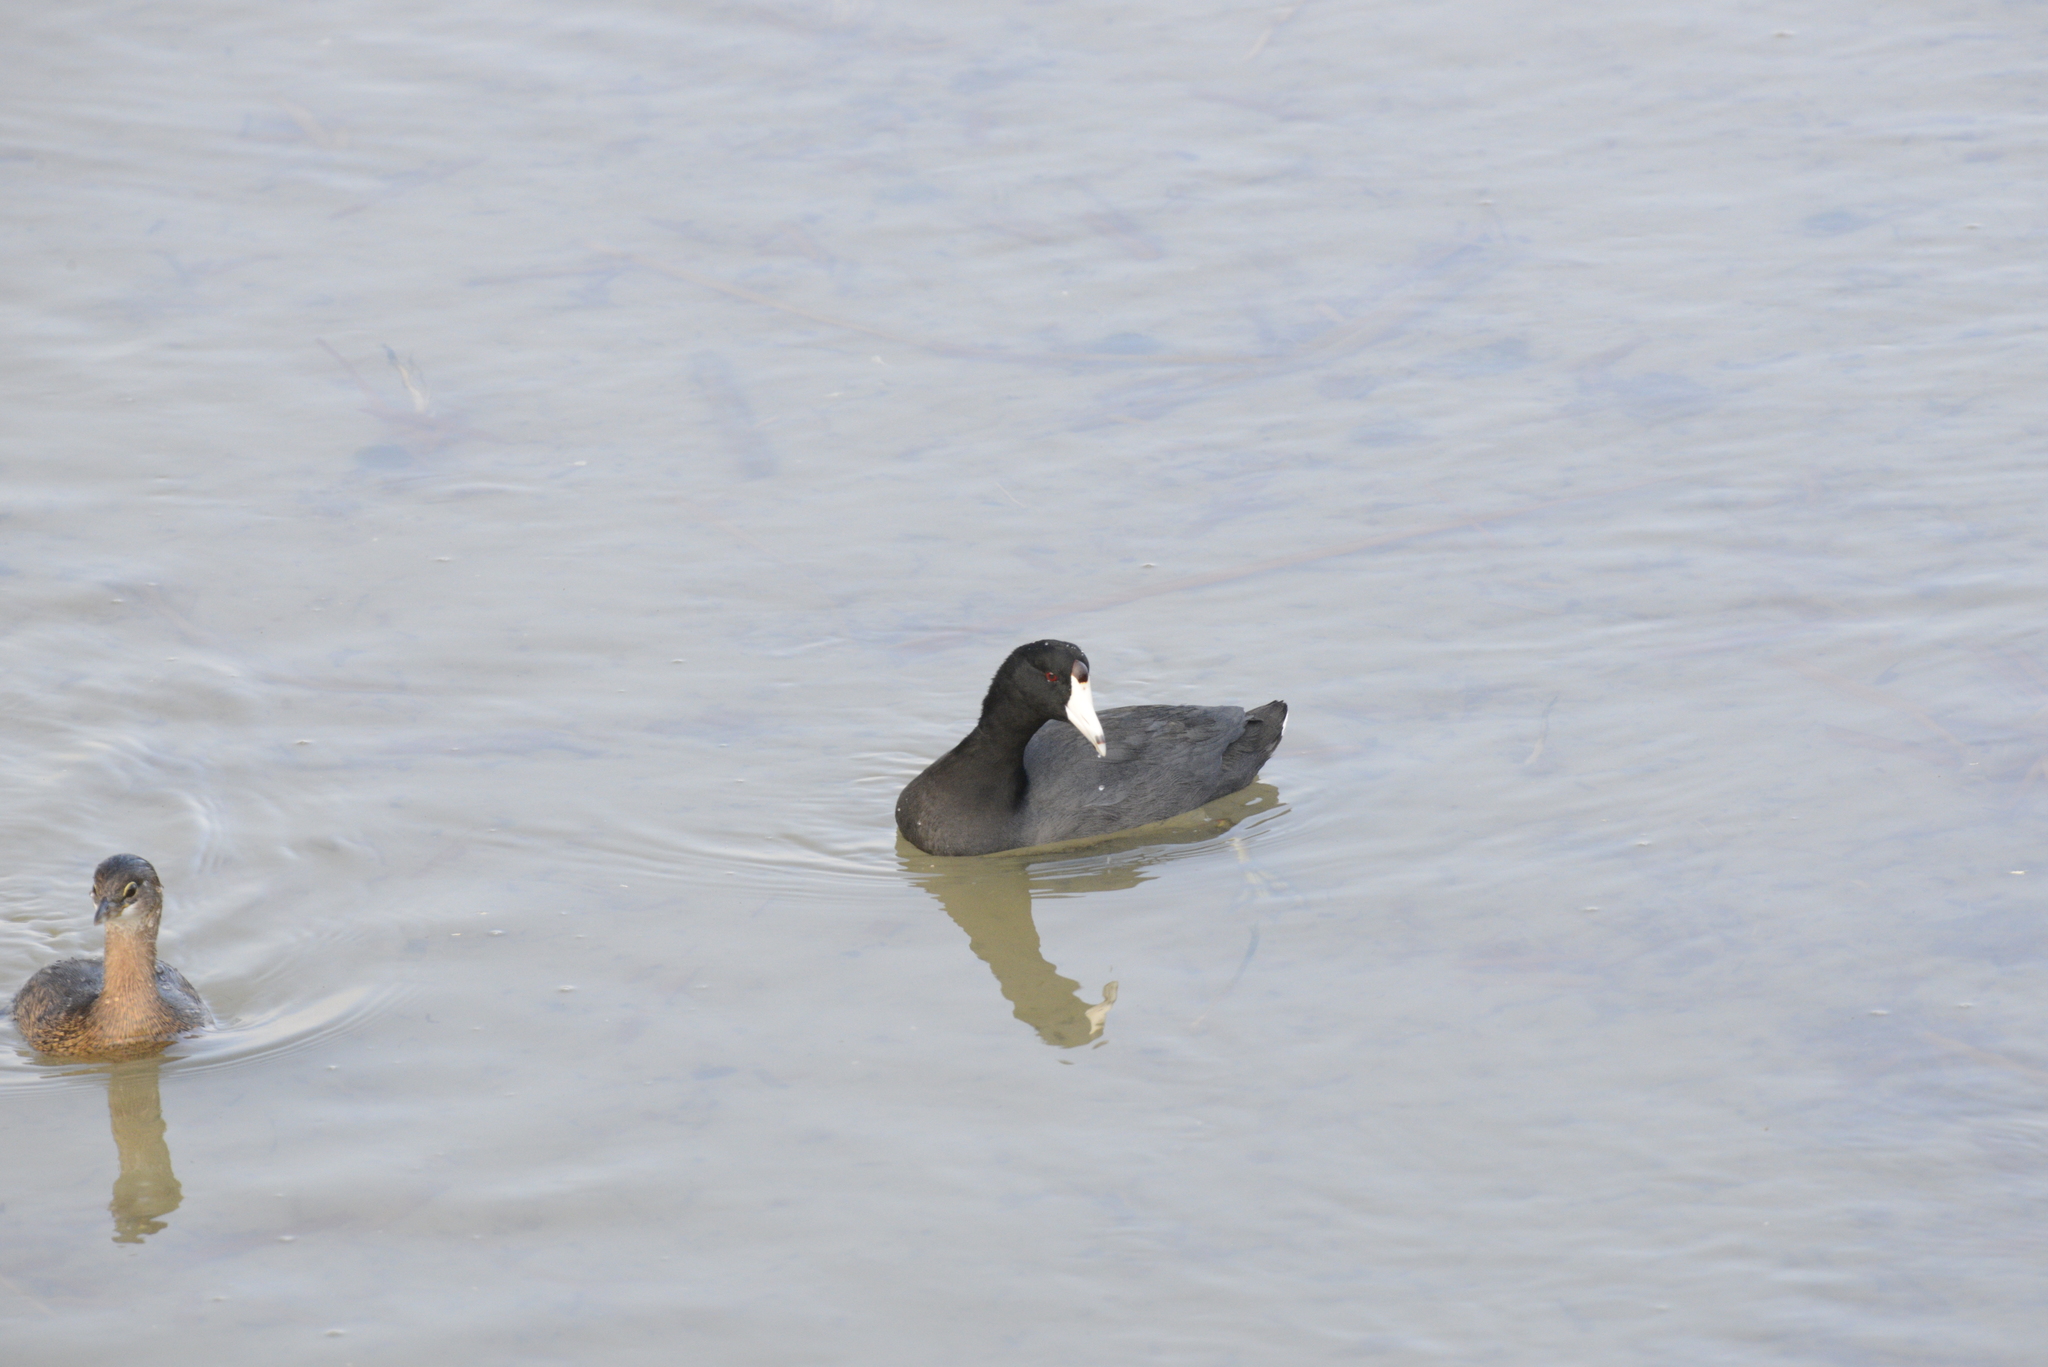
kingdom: Animalia
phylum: Chordata
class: Aves
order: Gruiformes
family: Rallidae
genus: Fulica
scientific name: Fulica americana
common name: American coot
